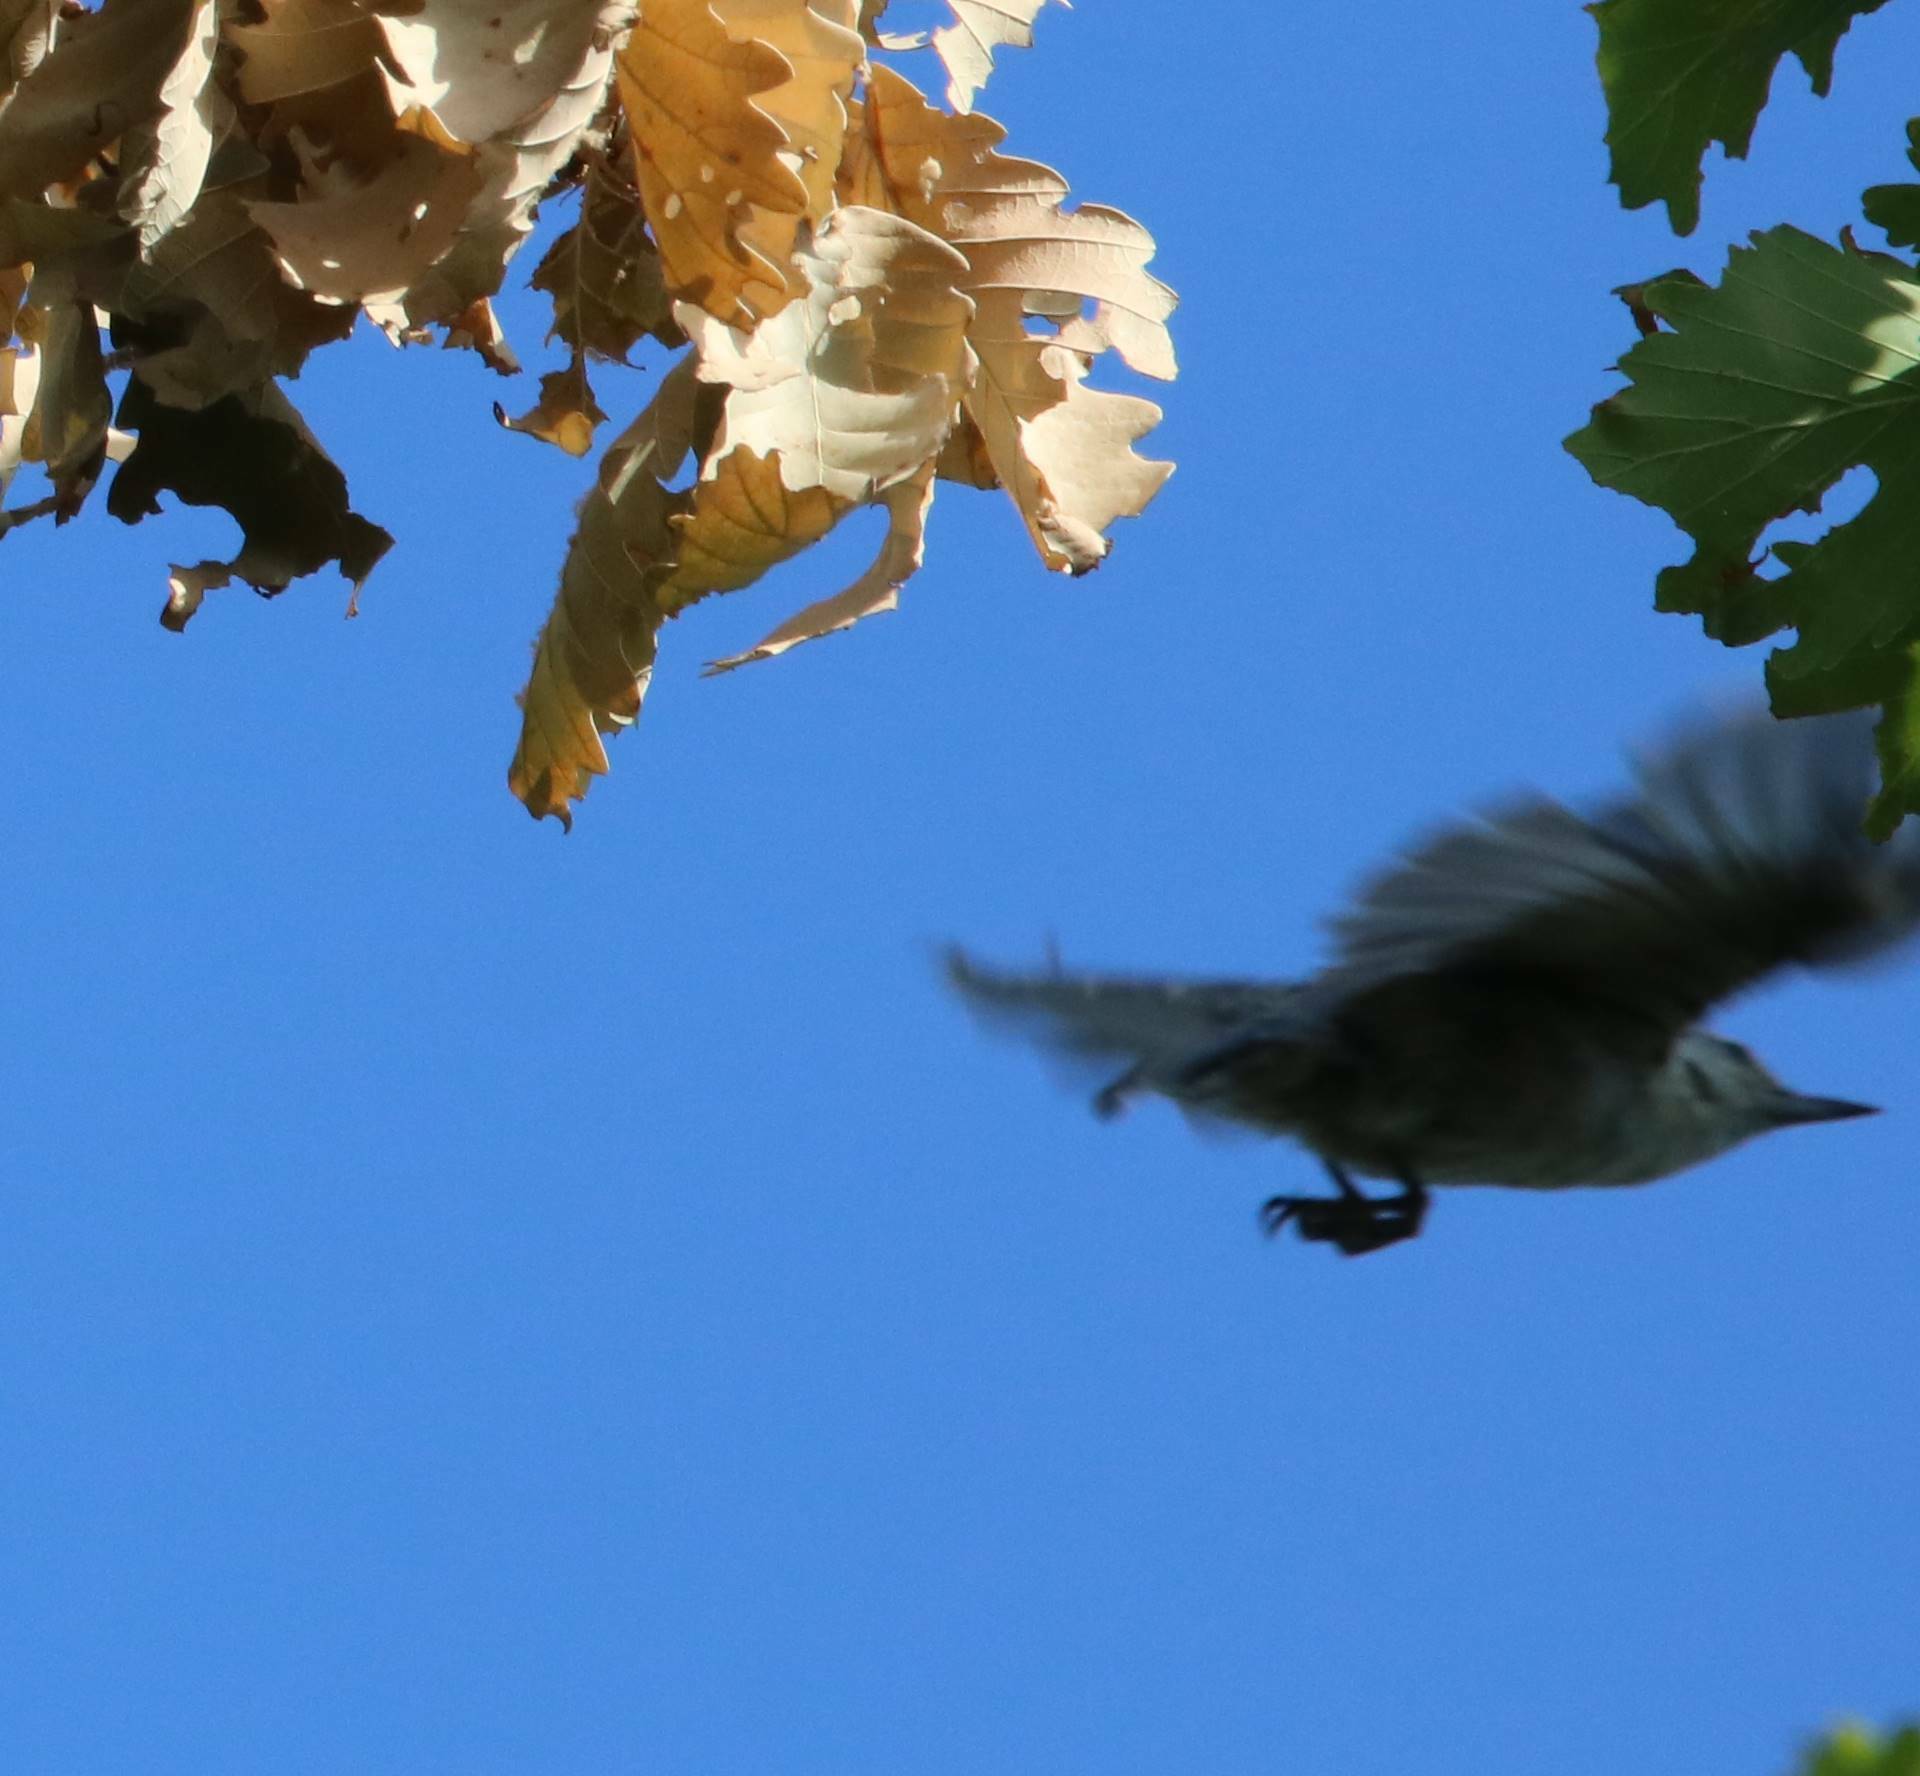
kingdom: Animalia
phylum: Chordata
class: Aves
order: Passeriformes
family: Sittidae
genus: Sitta
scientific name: Sitta ledanti
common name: Algerian nuthatch
